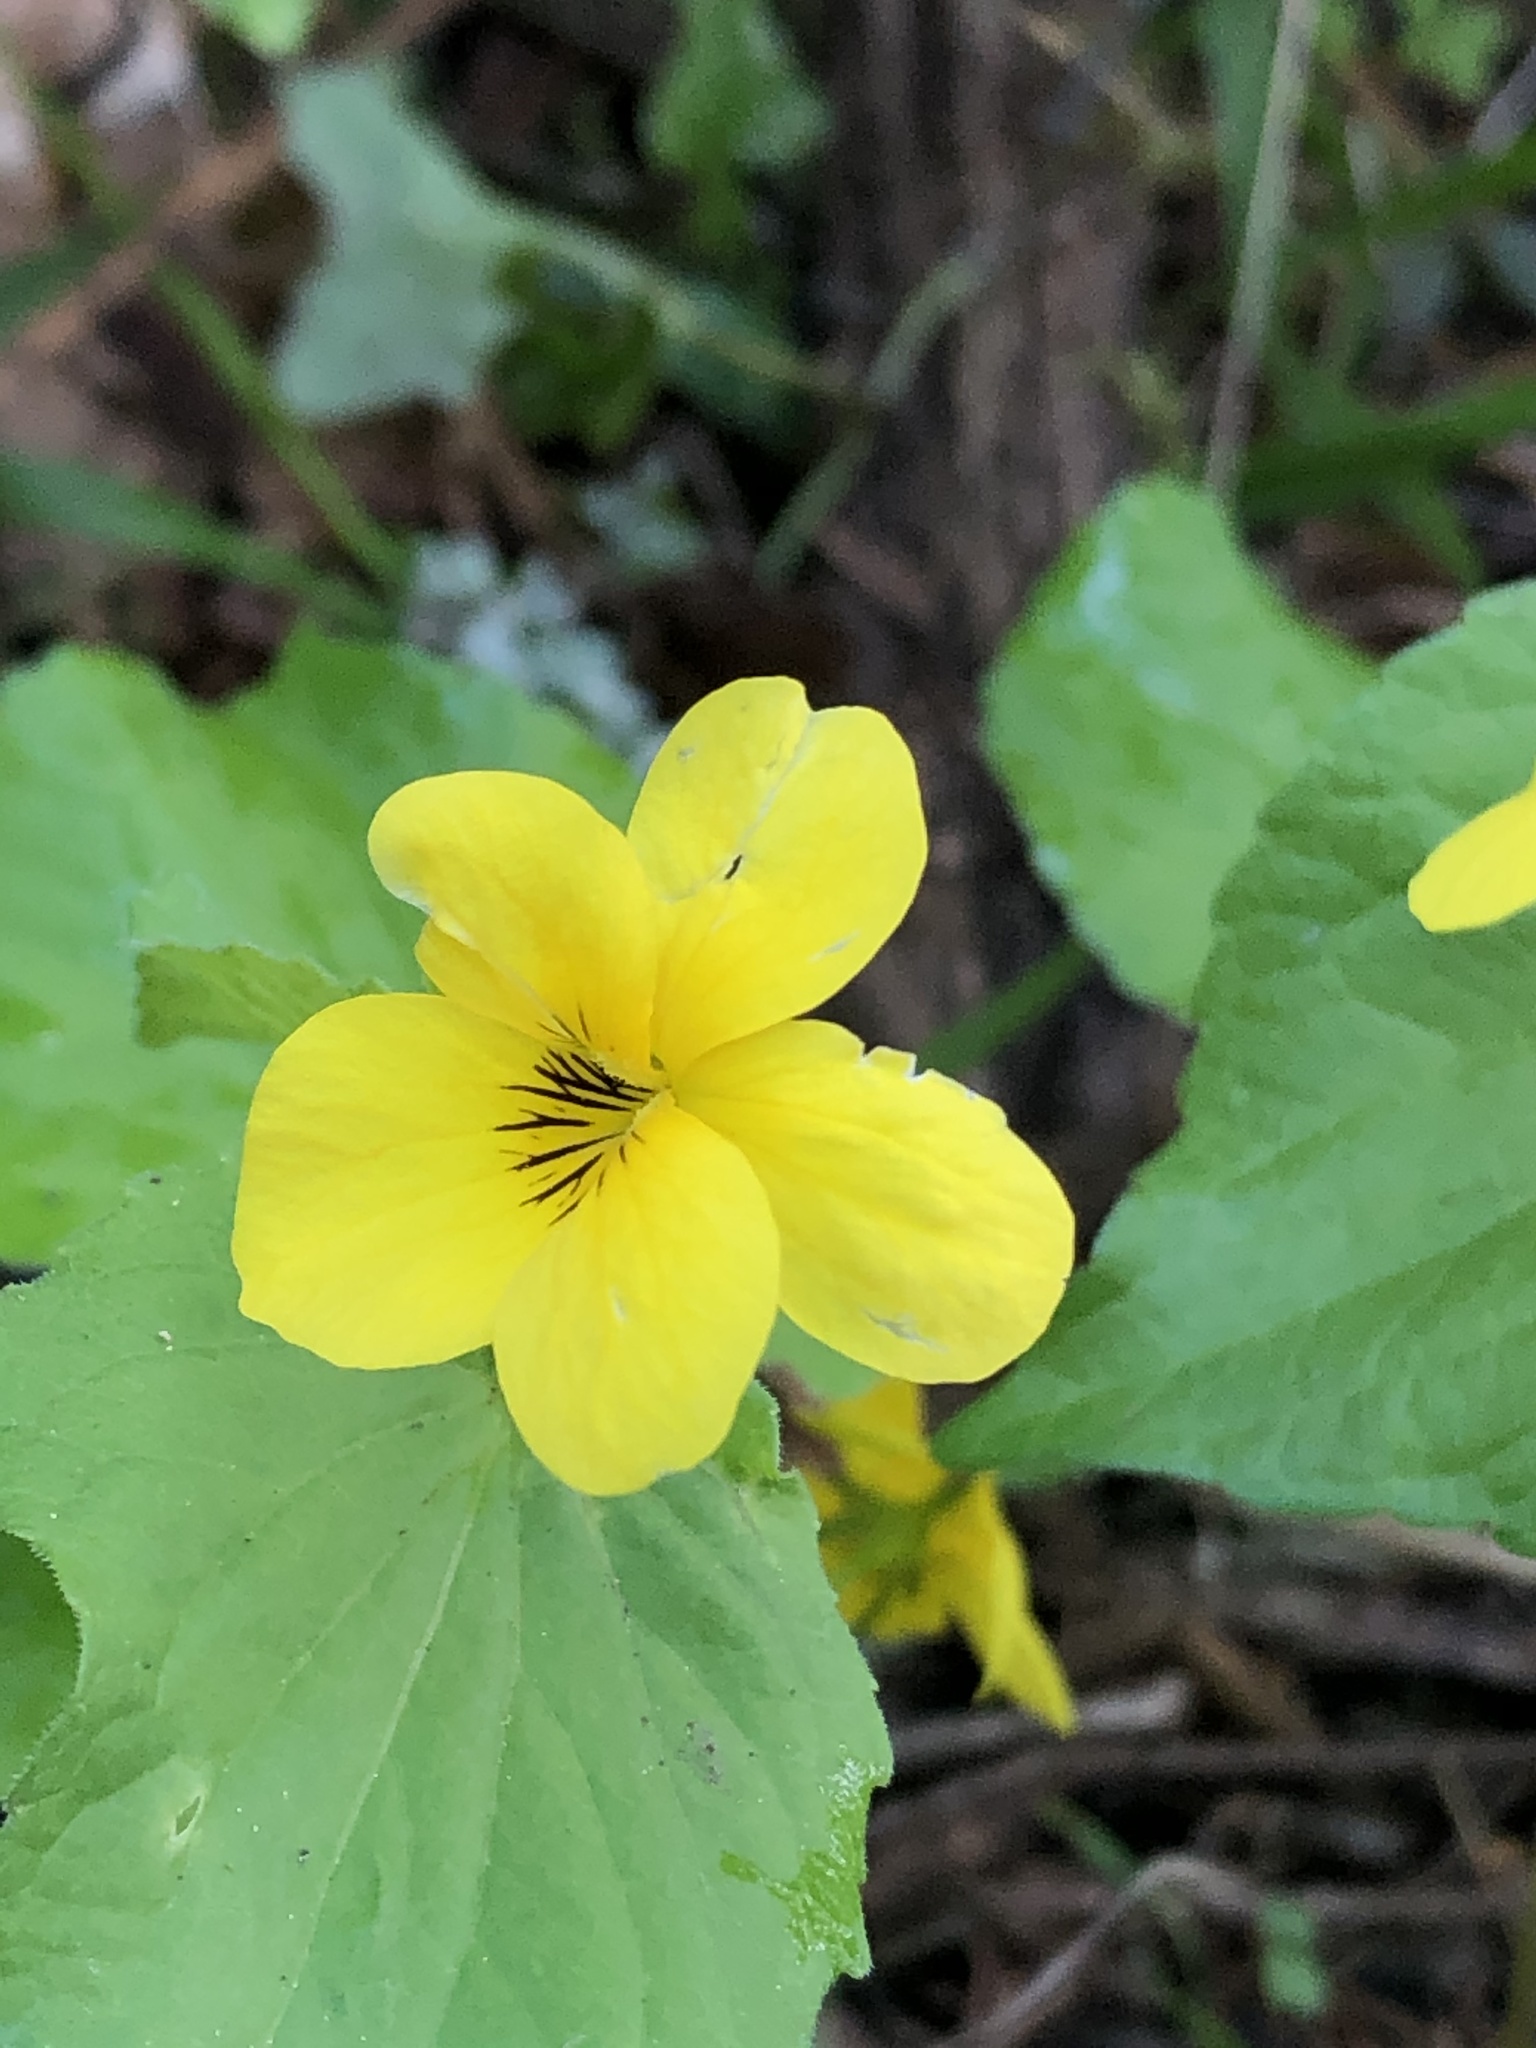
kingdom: Plantae
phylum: Tracheophyta
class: Magnoliopsida
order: Malpighiales
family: Violaceae
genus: Viola
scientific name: Viola glabella
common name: Stream violet
